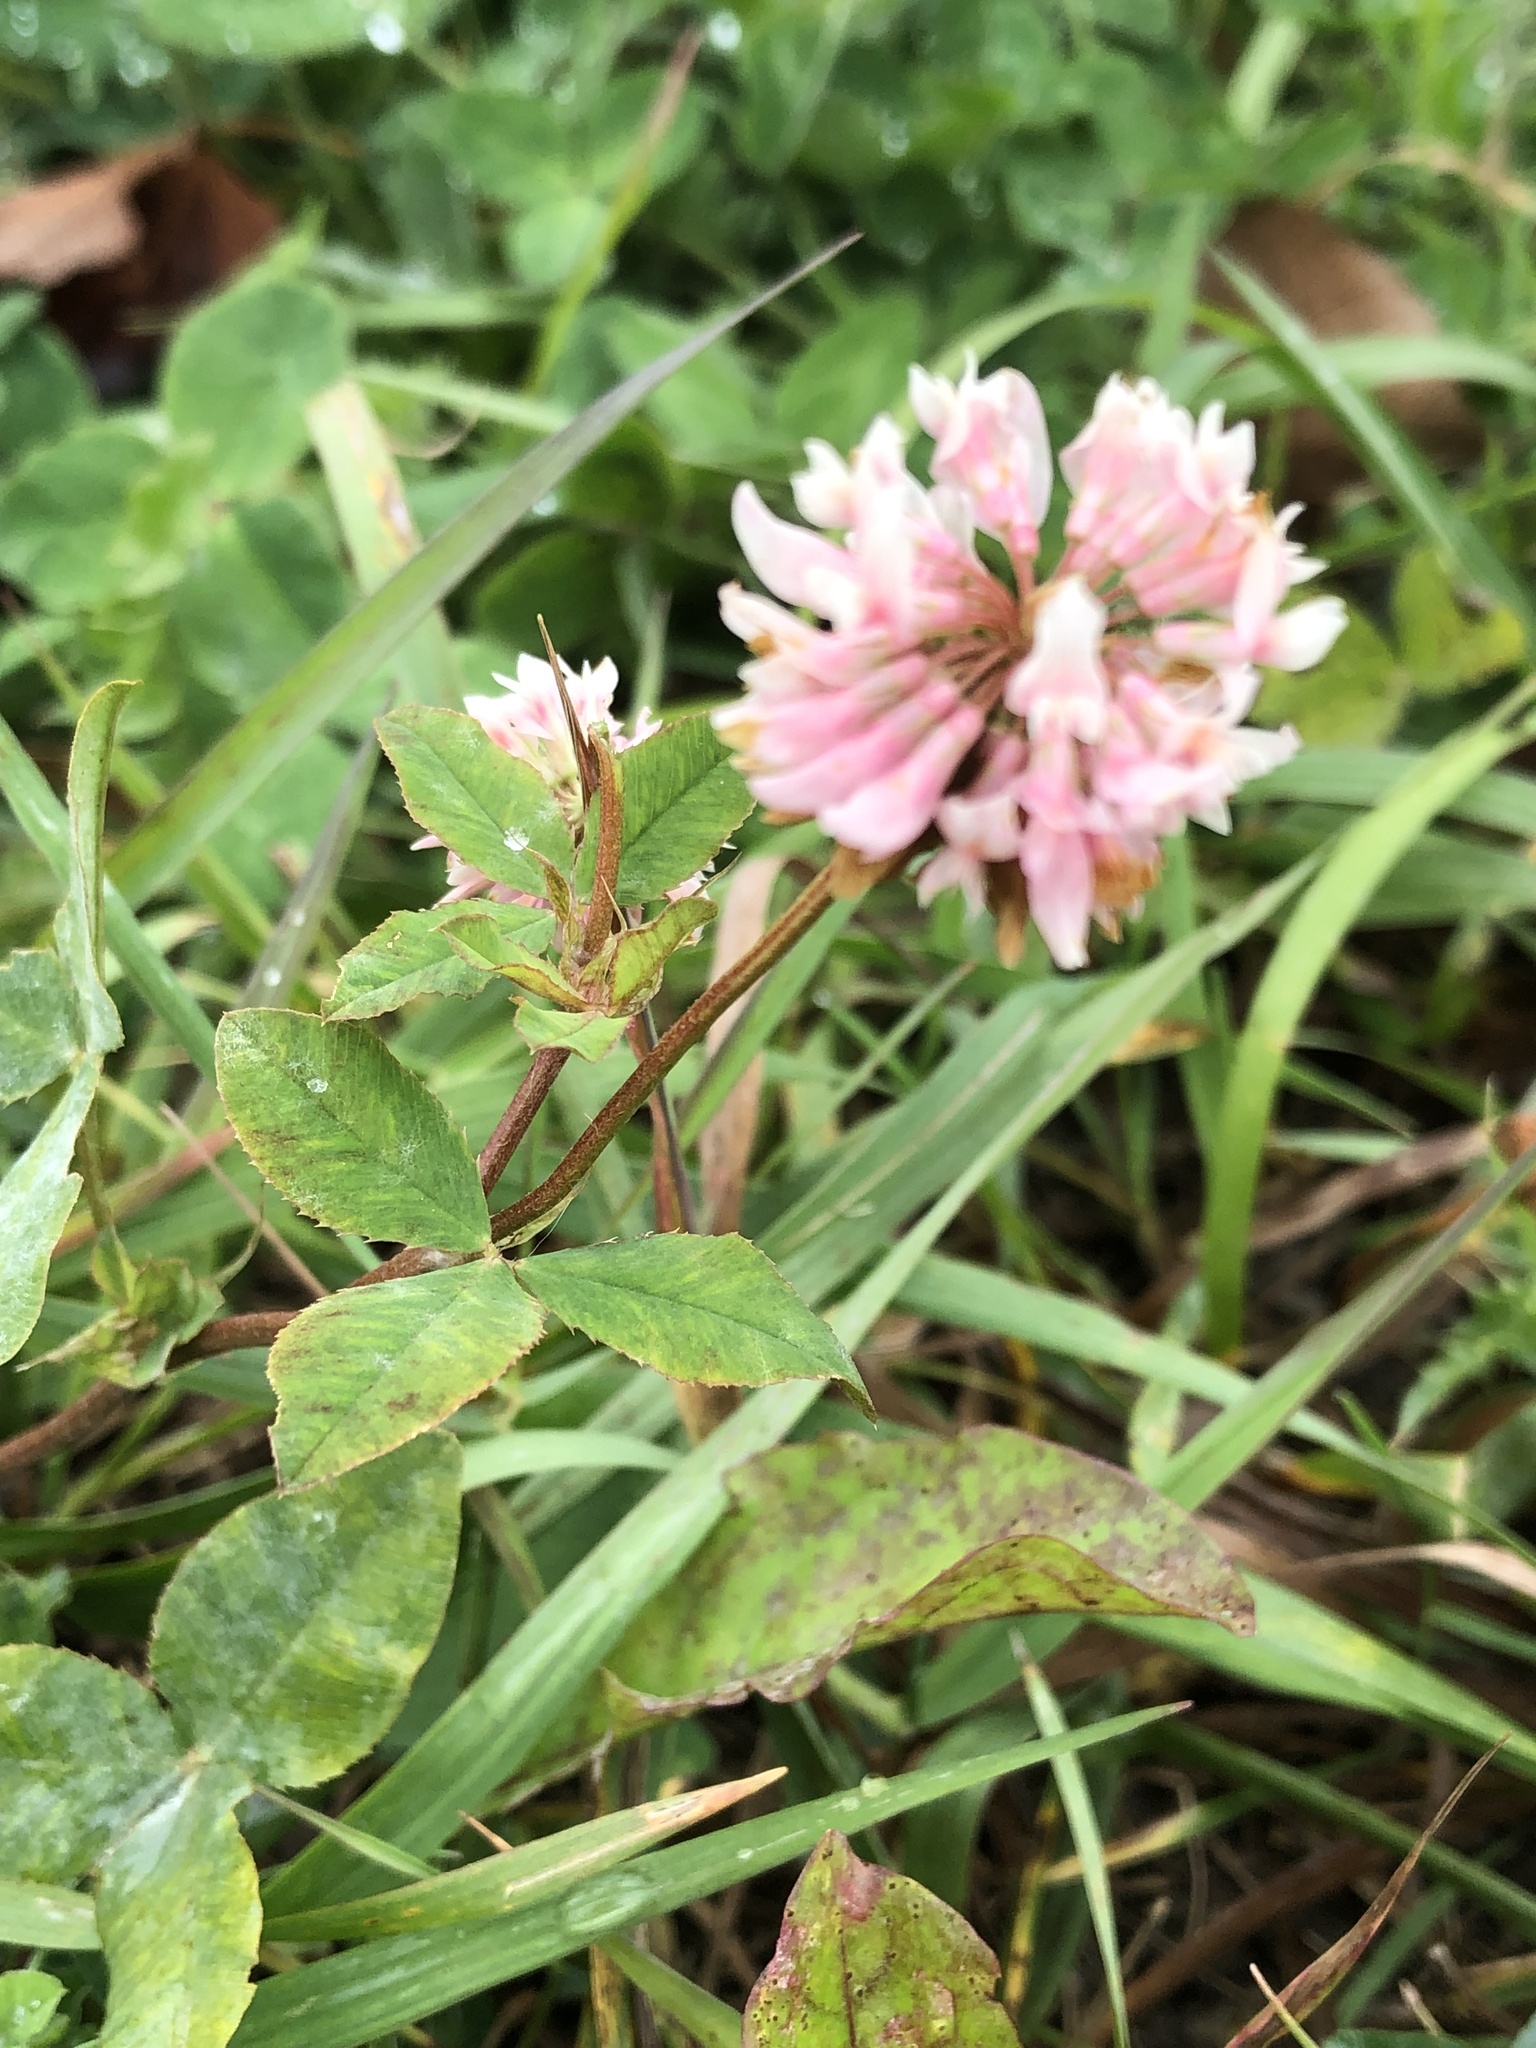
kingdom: Plantae
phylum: Tracheophyta
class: Magnoliopsida
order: Fabales
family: Fabaceae
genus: Trifolium
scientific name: Trifolium hybridum
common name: Alsike clover
